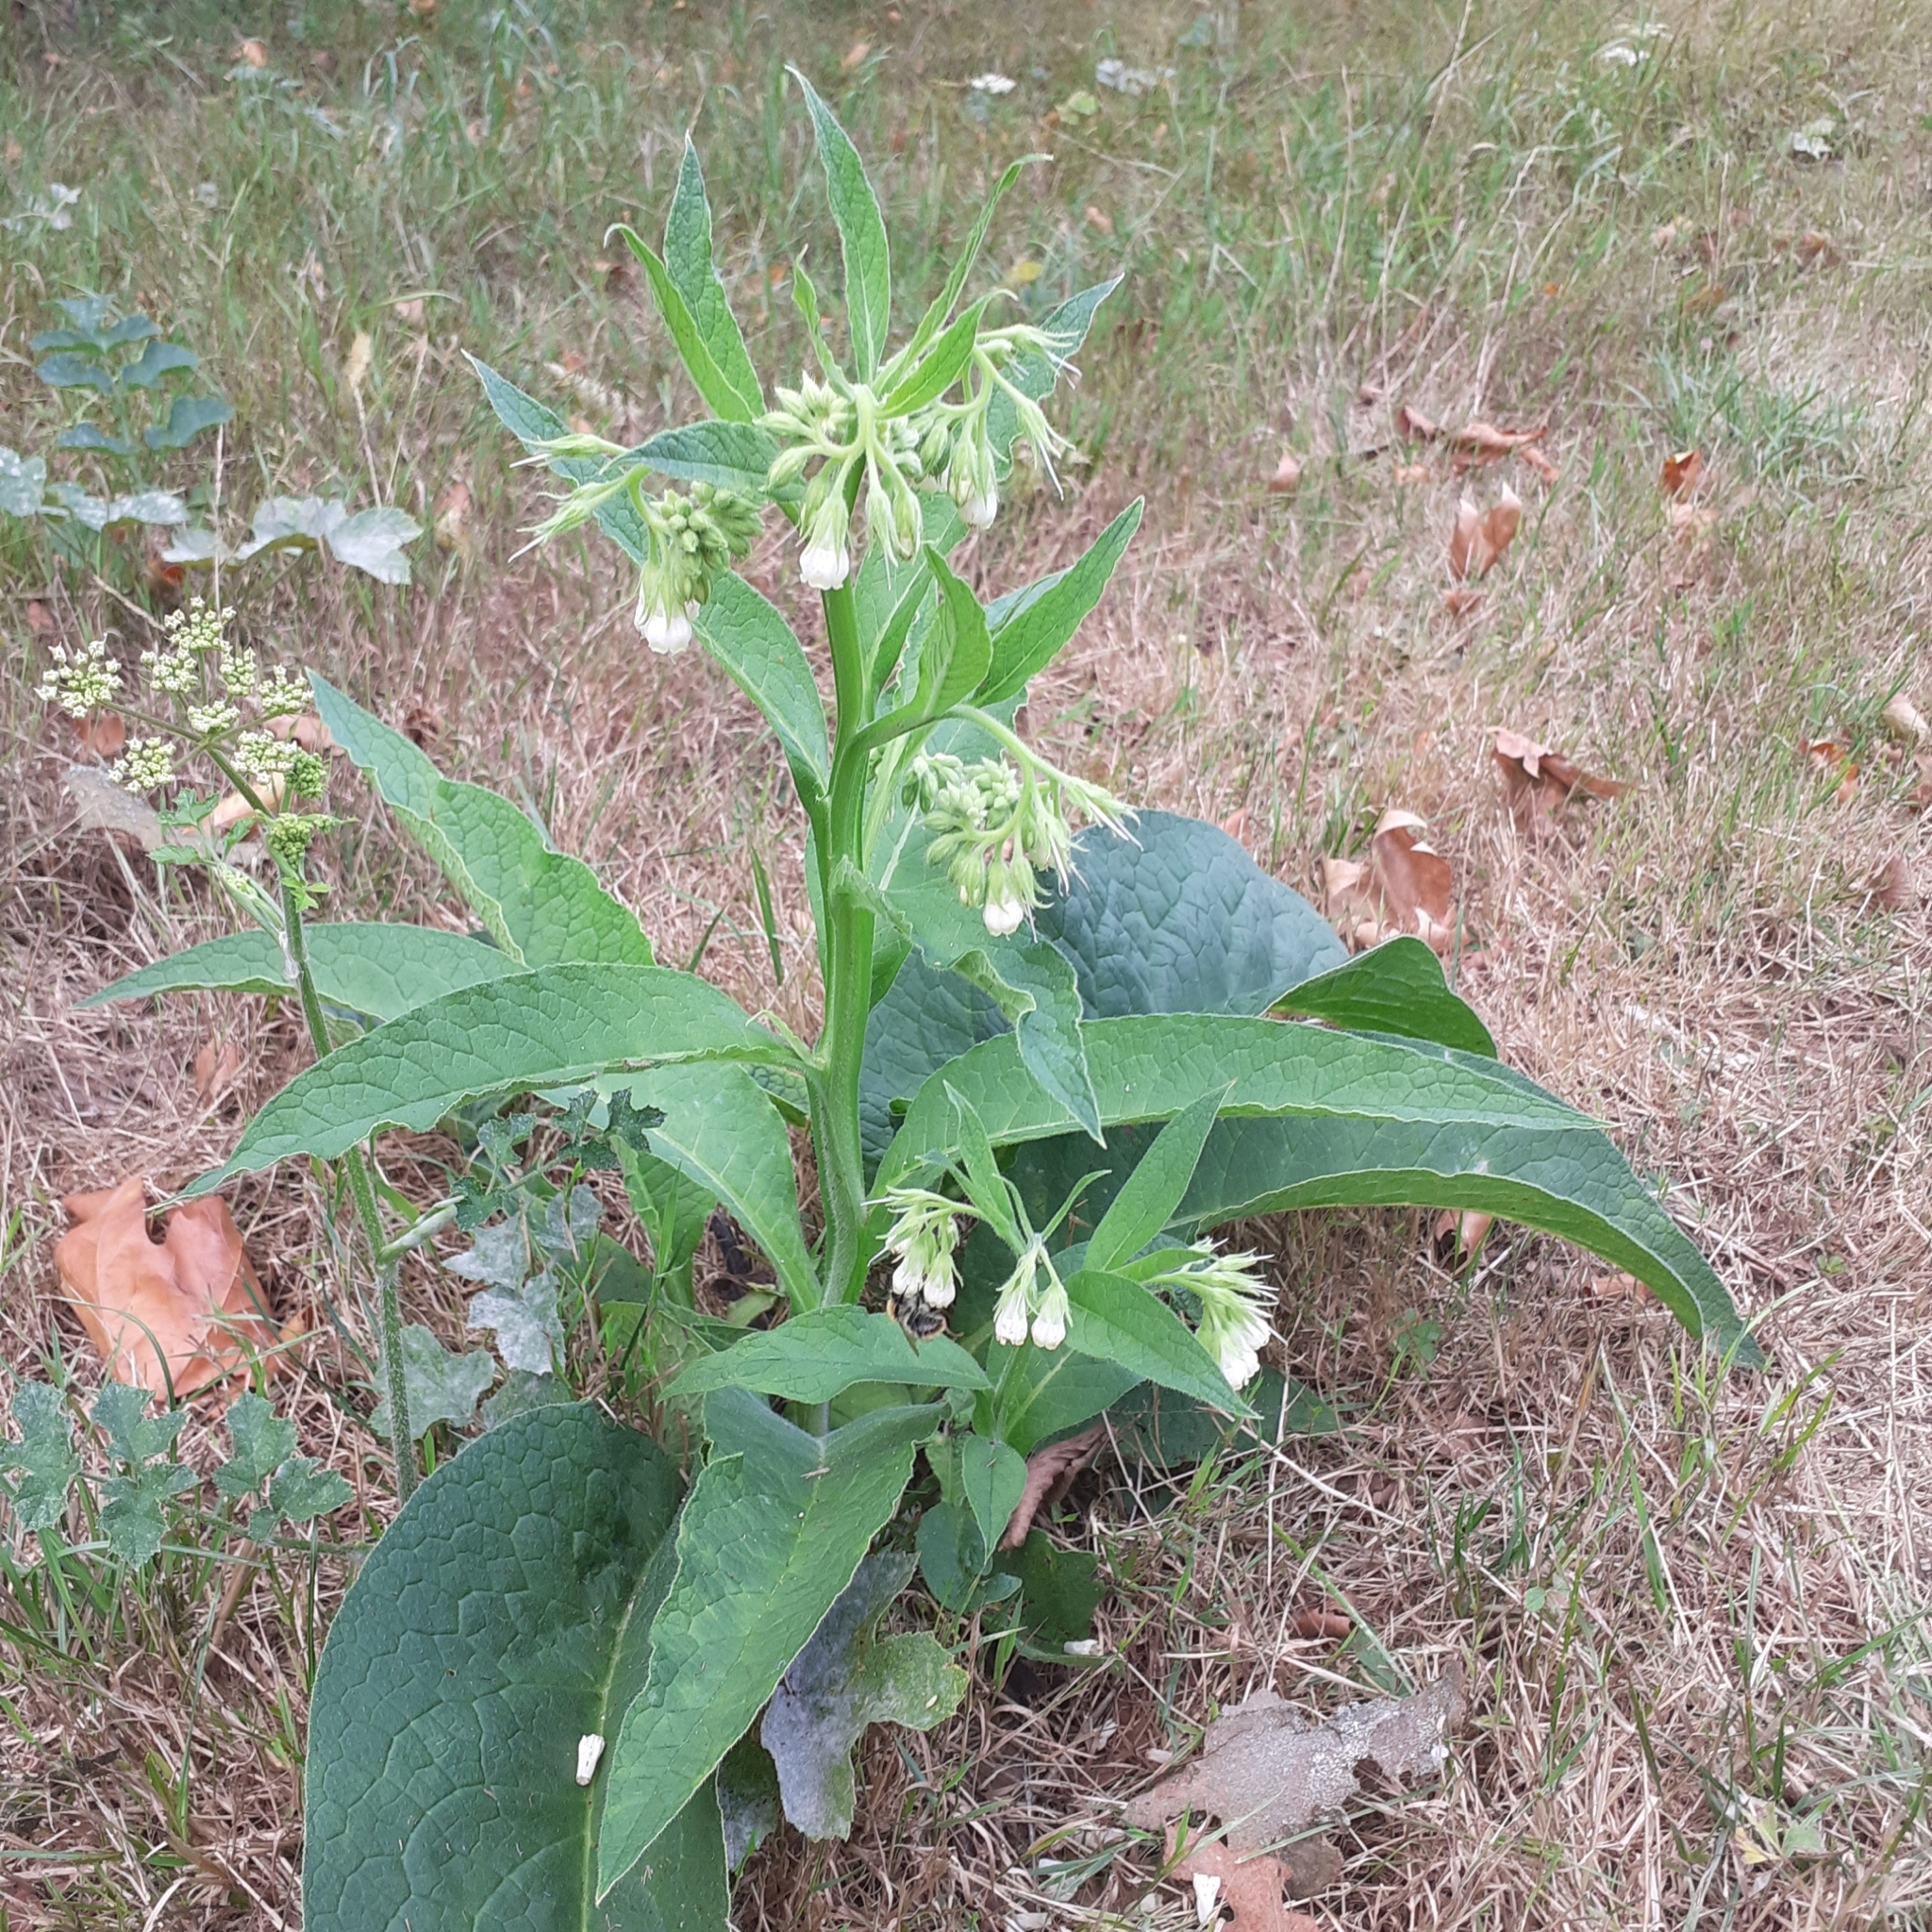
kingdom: Plantae
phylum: Tracheophyta
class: Magnoliopsida
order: Boraginales
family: Boraginaceae
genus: Symphytum
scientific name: Symphytum officinale
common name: Common comfrey
